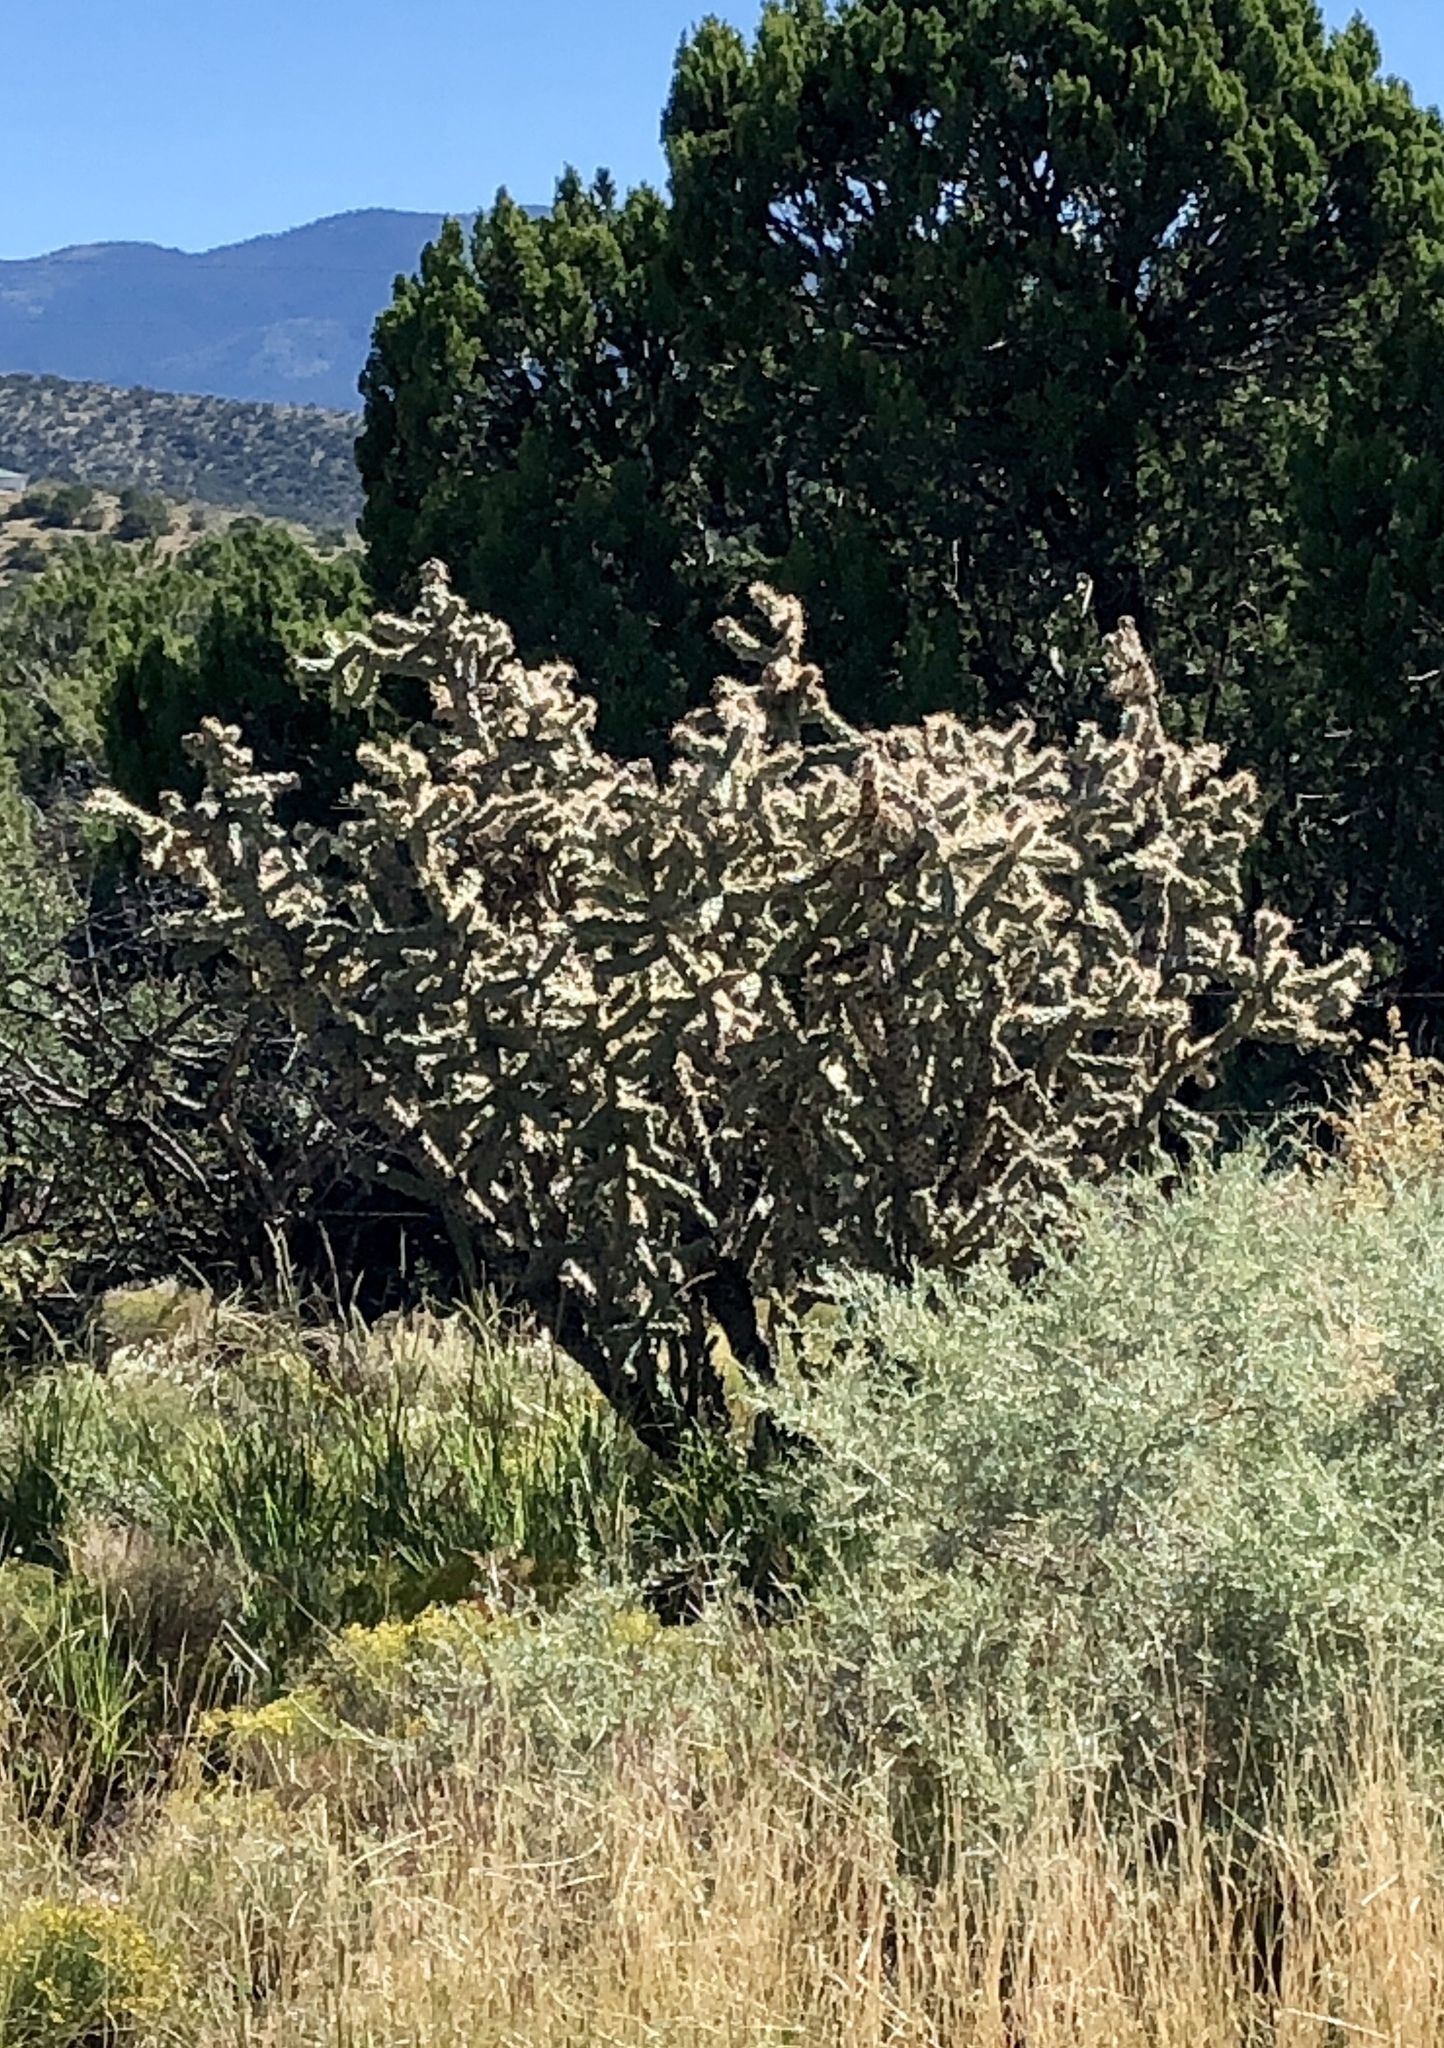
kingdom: Plantae
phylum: Tracheophyta
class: Magnoliopsida
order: Caryophyllales
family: Cactaceae
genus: Cylindropuntia
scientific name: Cylindropuntia imbricata
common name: Candelabrum cactus
